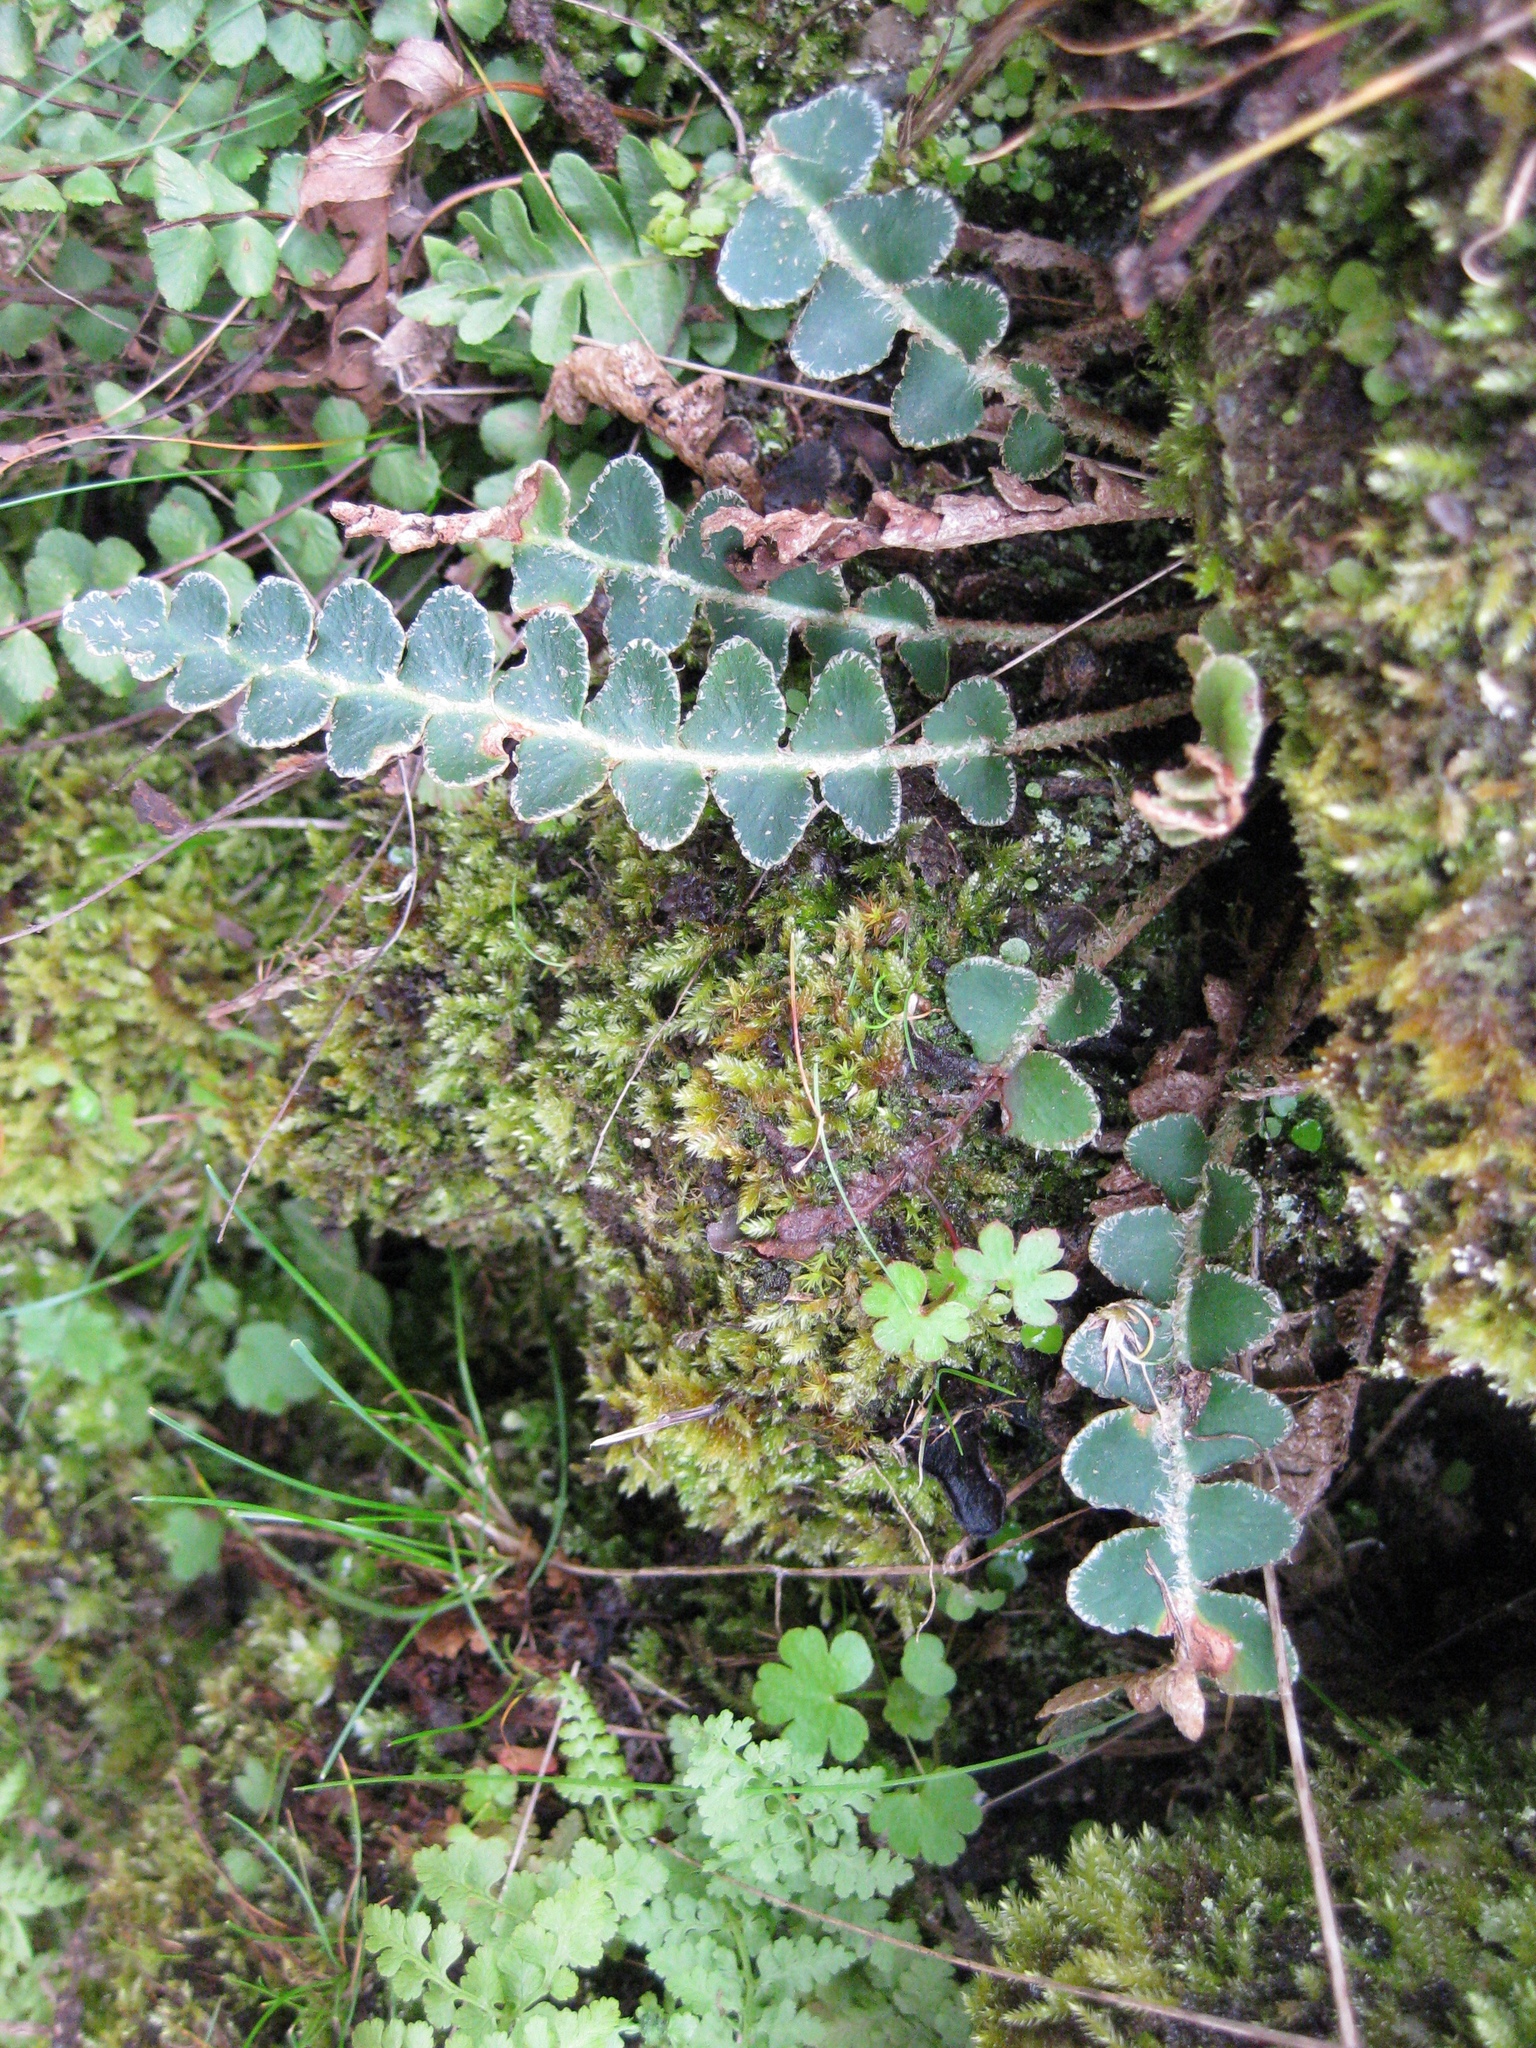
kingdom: Plantae
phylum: Tracheophyta
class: Polypodiopsida
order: Polypodiales
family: Aspleniaceae
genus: Asplenium
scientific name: Asplenium ceterach
